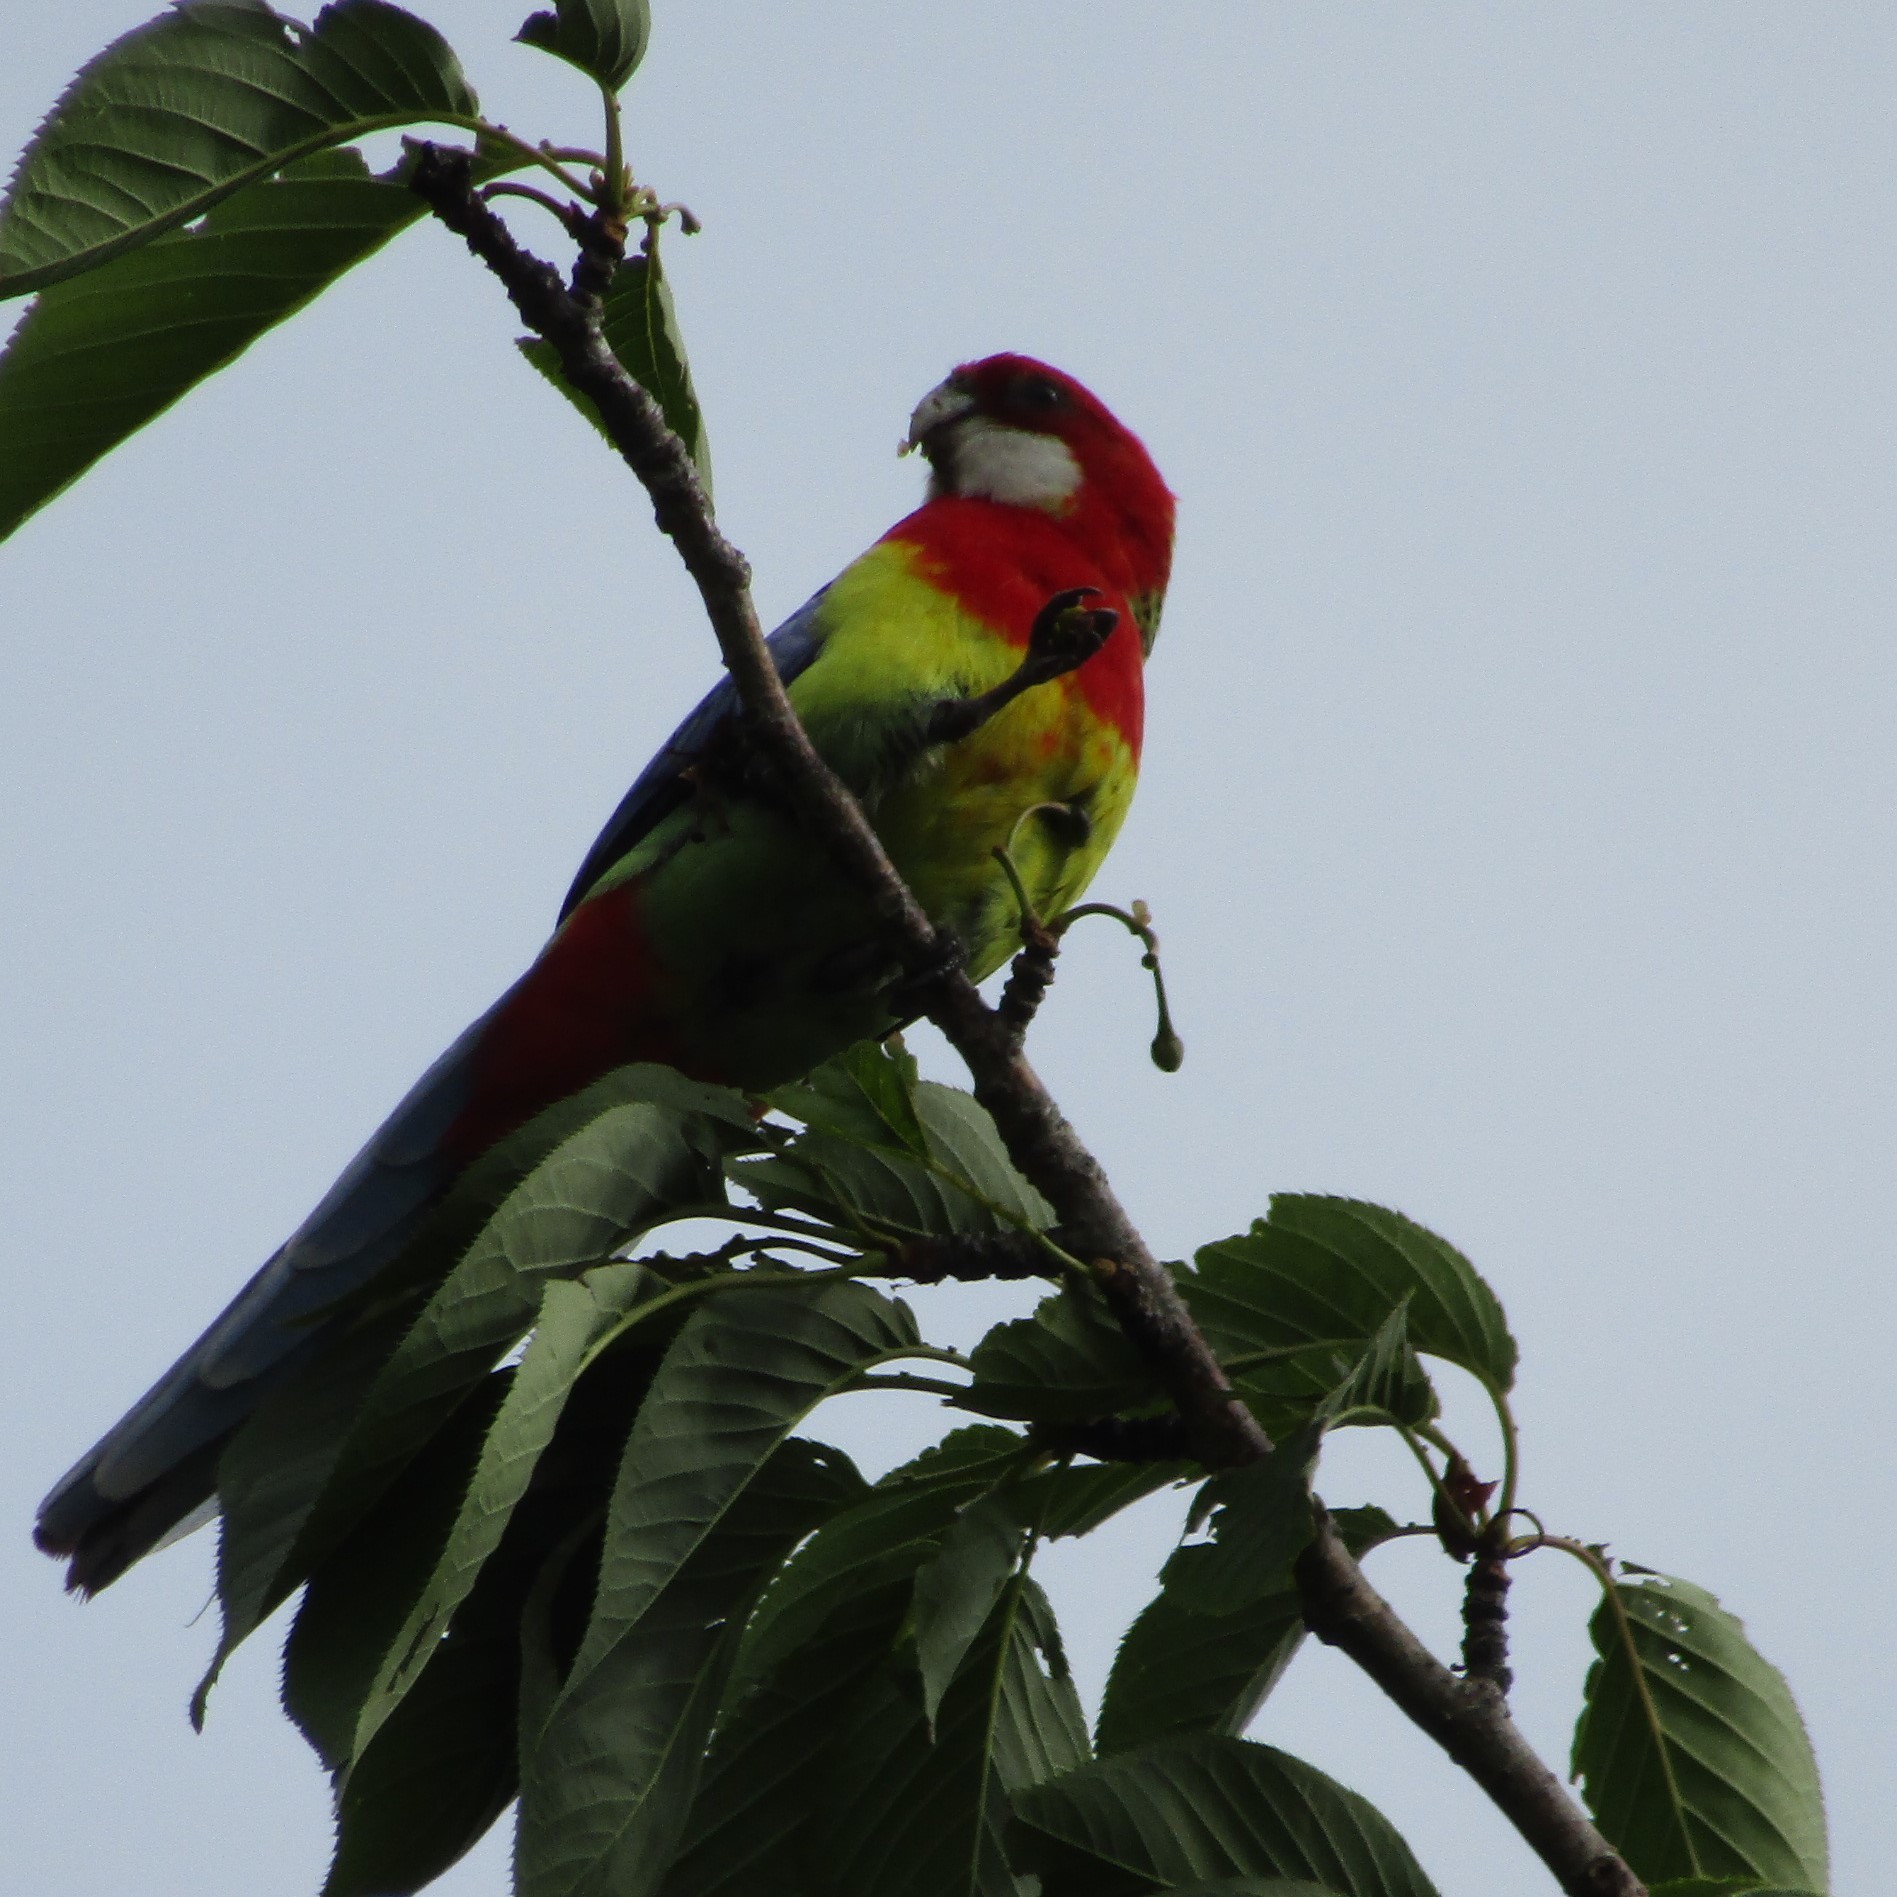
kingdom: Animalia
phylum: Chordata
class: Aves
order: Psittaciformes
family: Psittacidae
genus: Platycercus
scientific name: Platycercus eximius
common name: Eastern rosella
